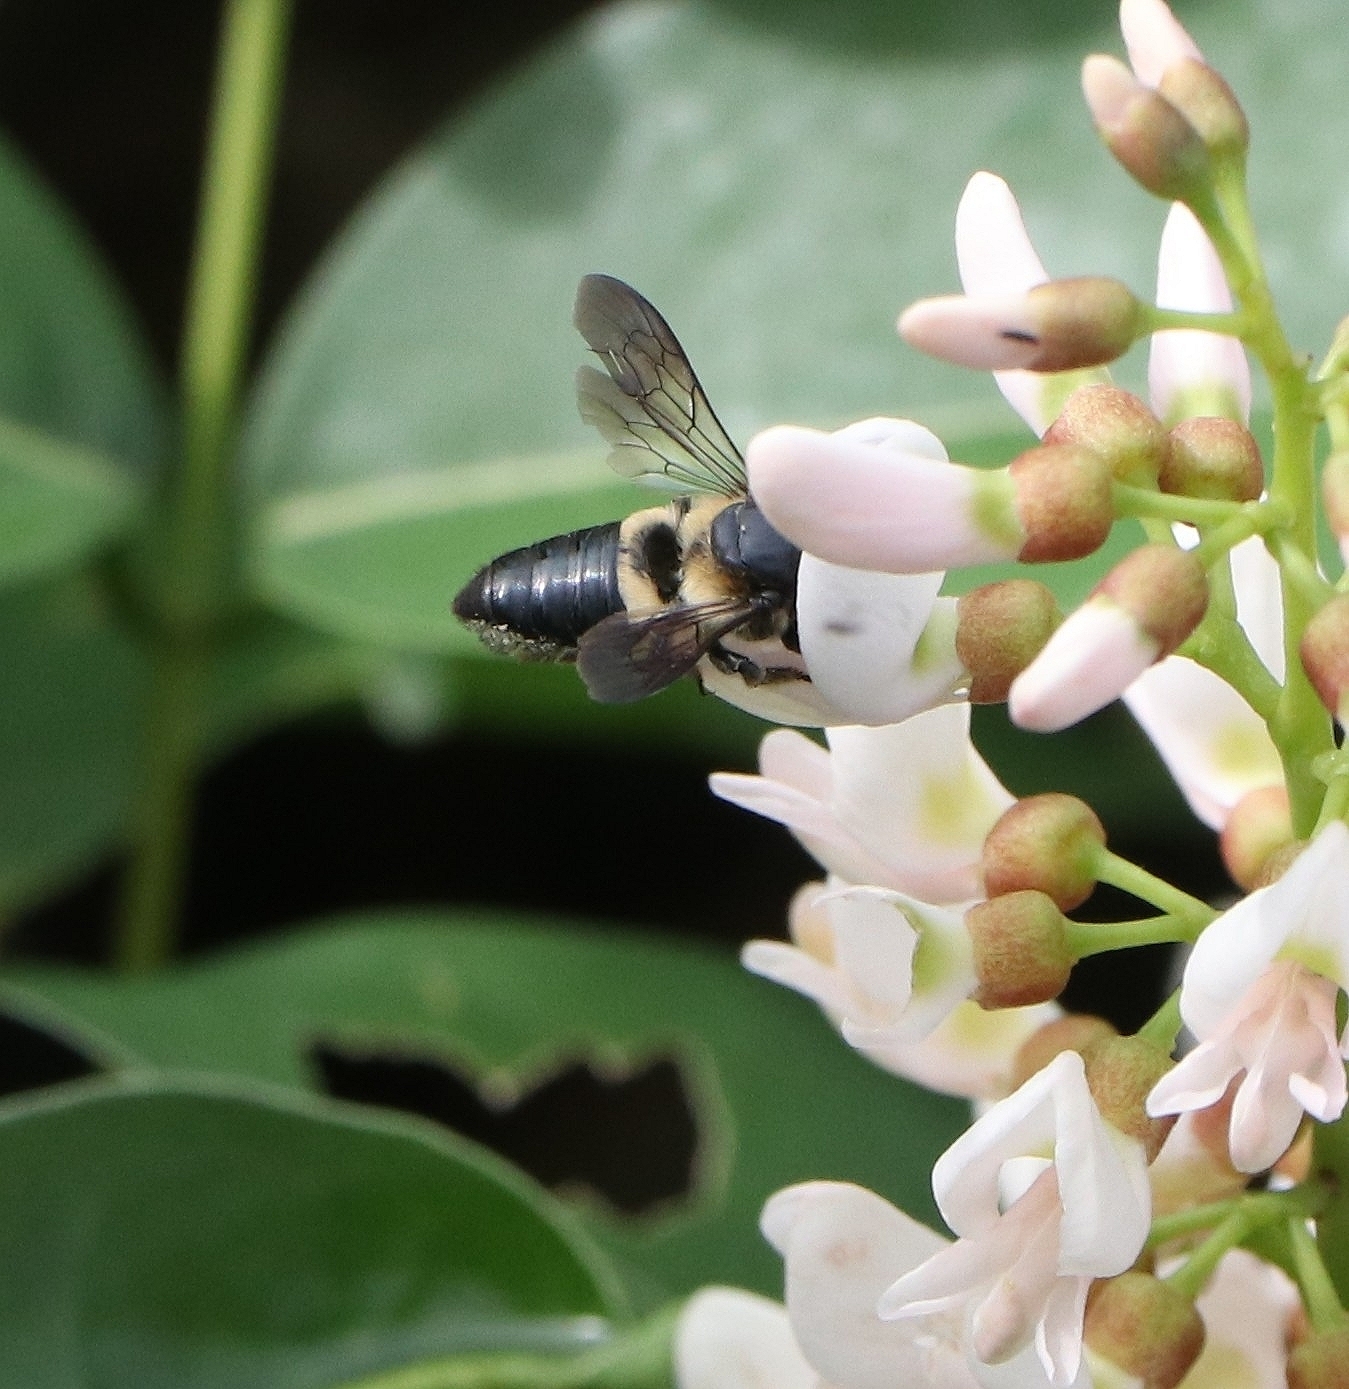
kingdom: Animalia
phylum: Arthropoda
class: Insecta
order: Hymenoptera
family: Megachilidae
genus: Megachile
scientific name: Megachile conjuncta
